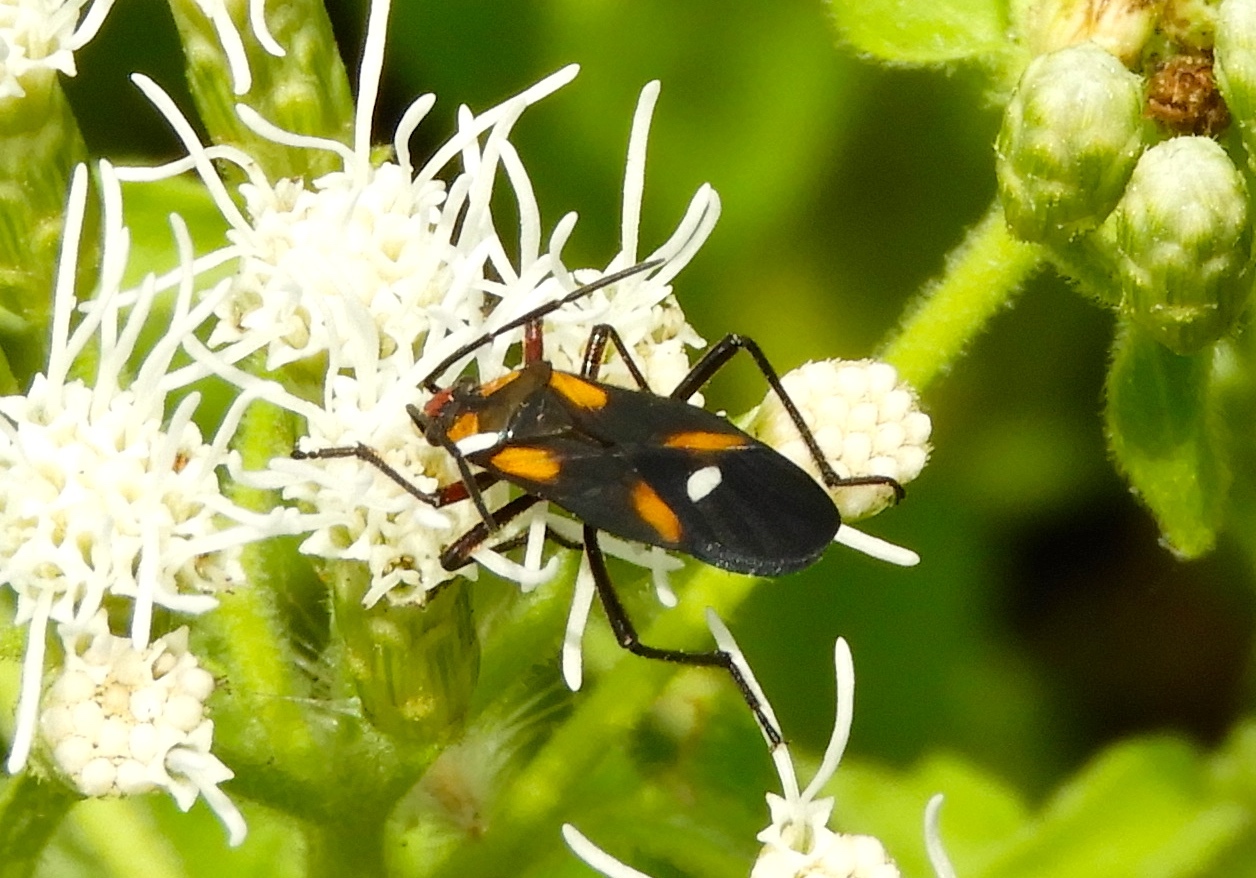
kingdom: Animalia
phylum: Arthropoda
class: Insecta
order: Hemiptera
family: Lygaeidae
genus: Oncopeltus
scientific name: Oncopeltus sexmaculatus
